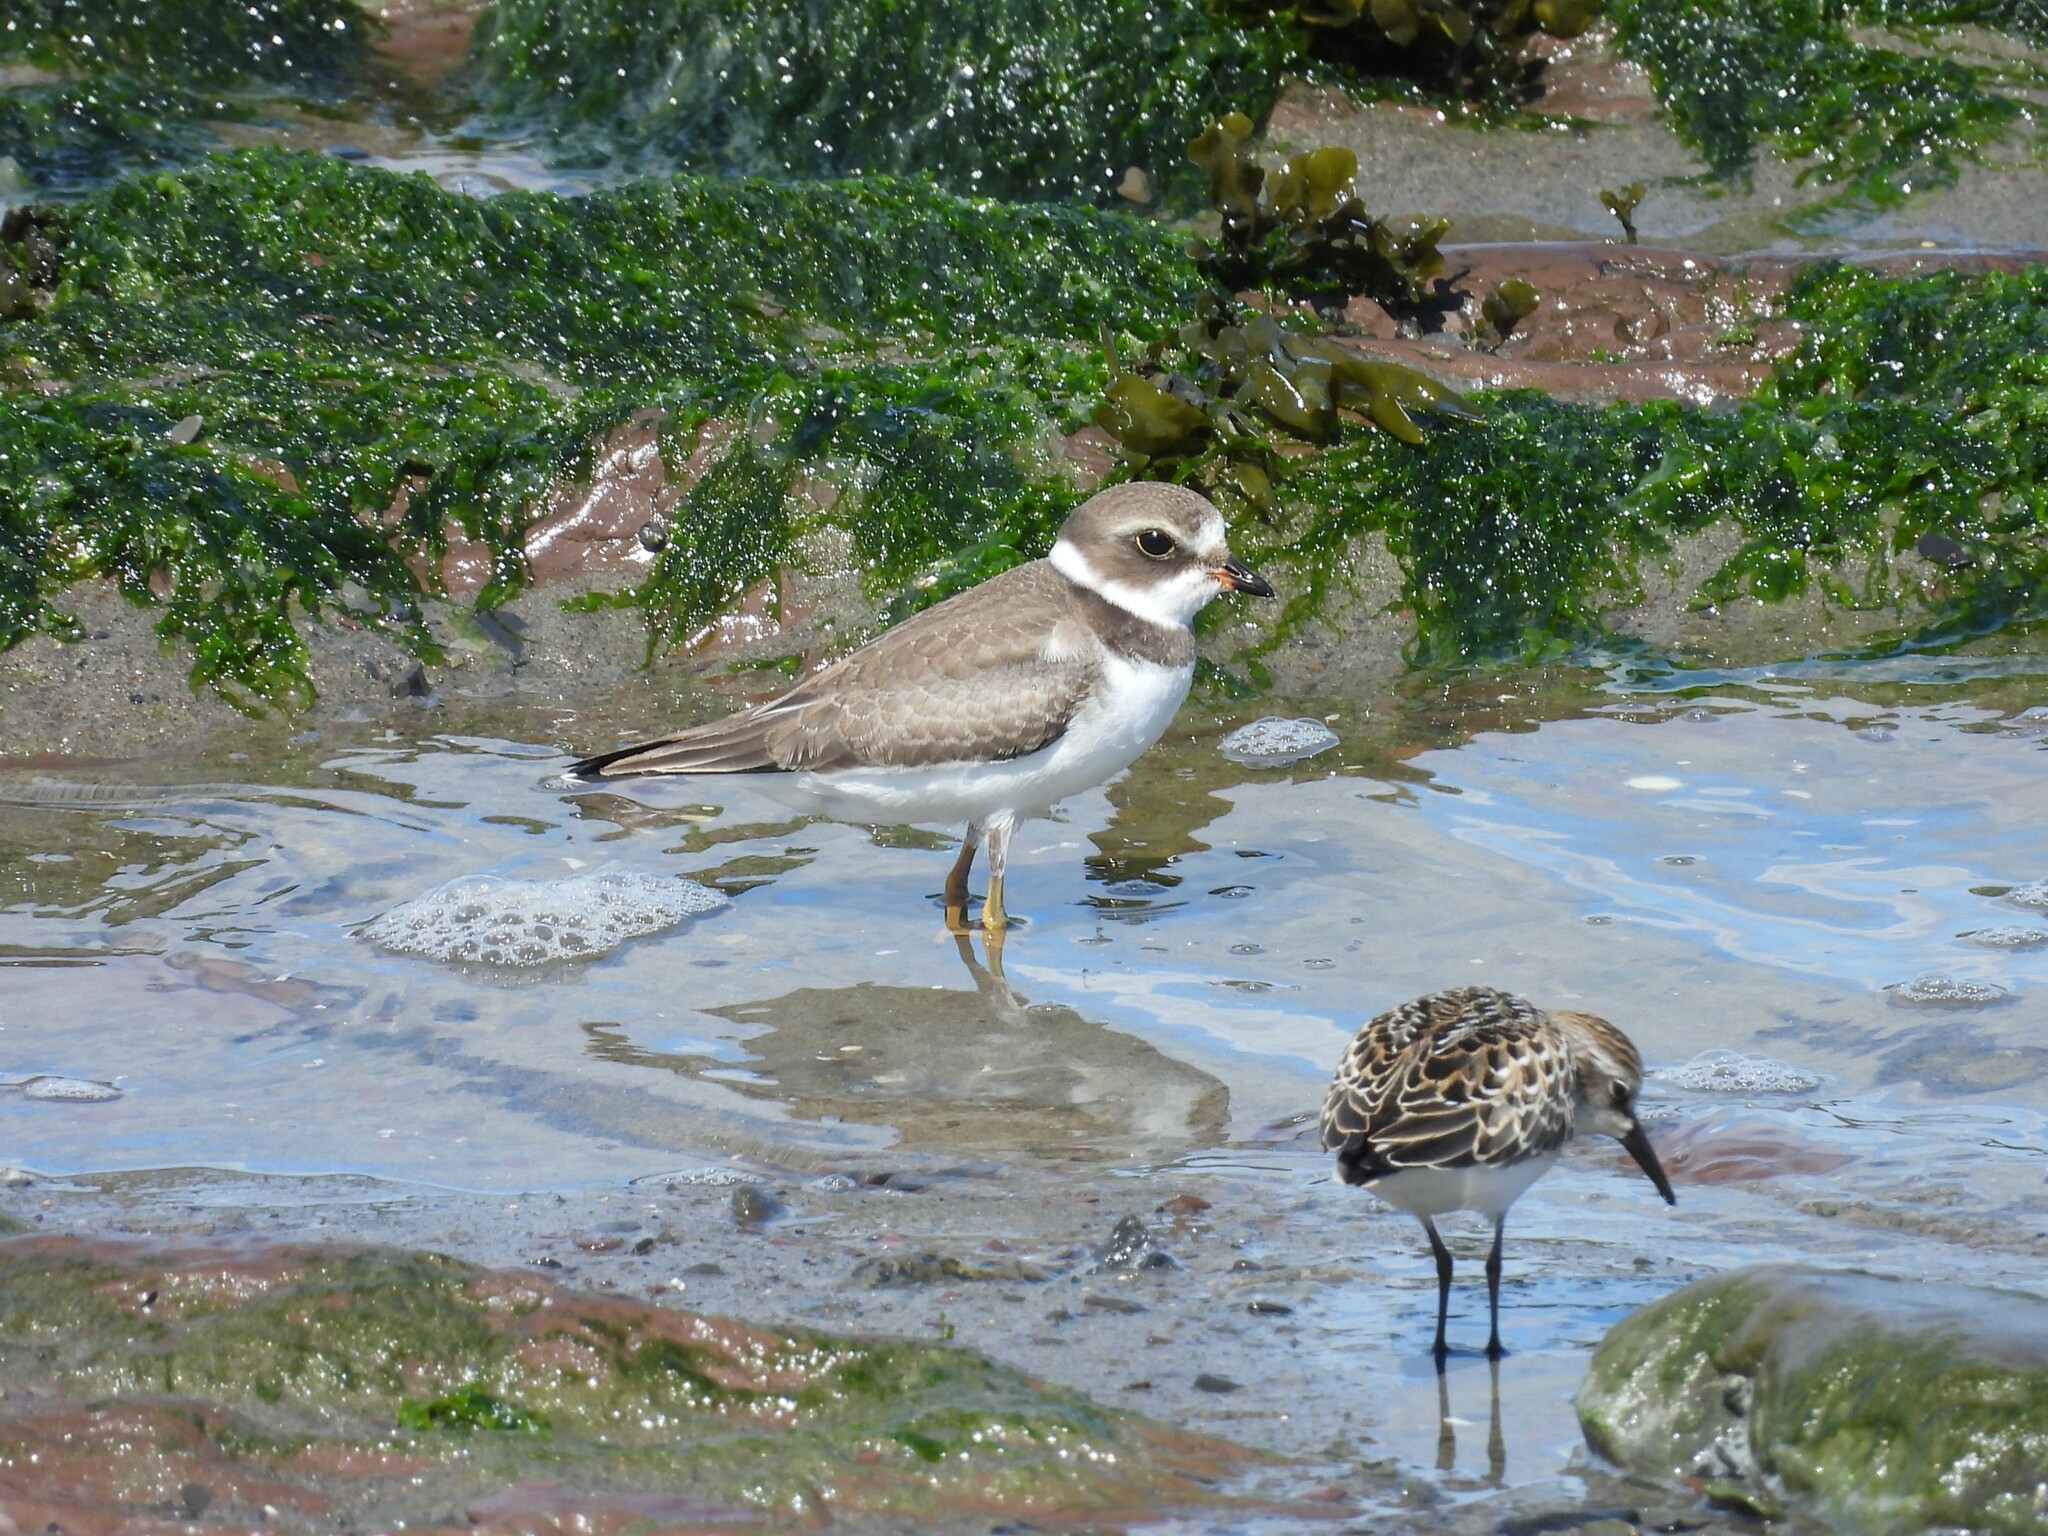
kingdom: Animalia
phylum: Chordata
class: Aves
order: Charadriiformes
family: Charadriidae
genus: Charadrius
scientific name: Charadrius semipalmatus
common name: Semipalmated plover
